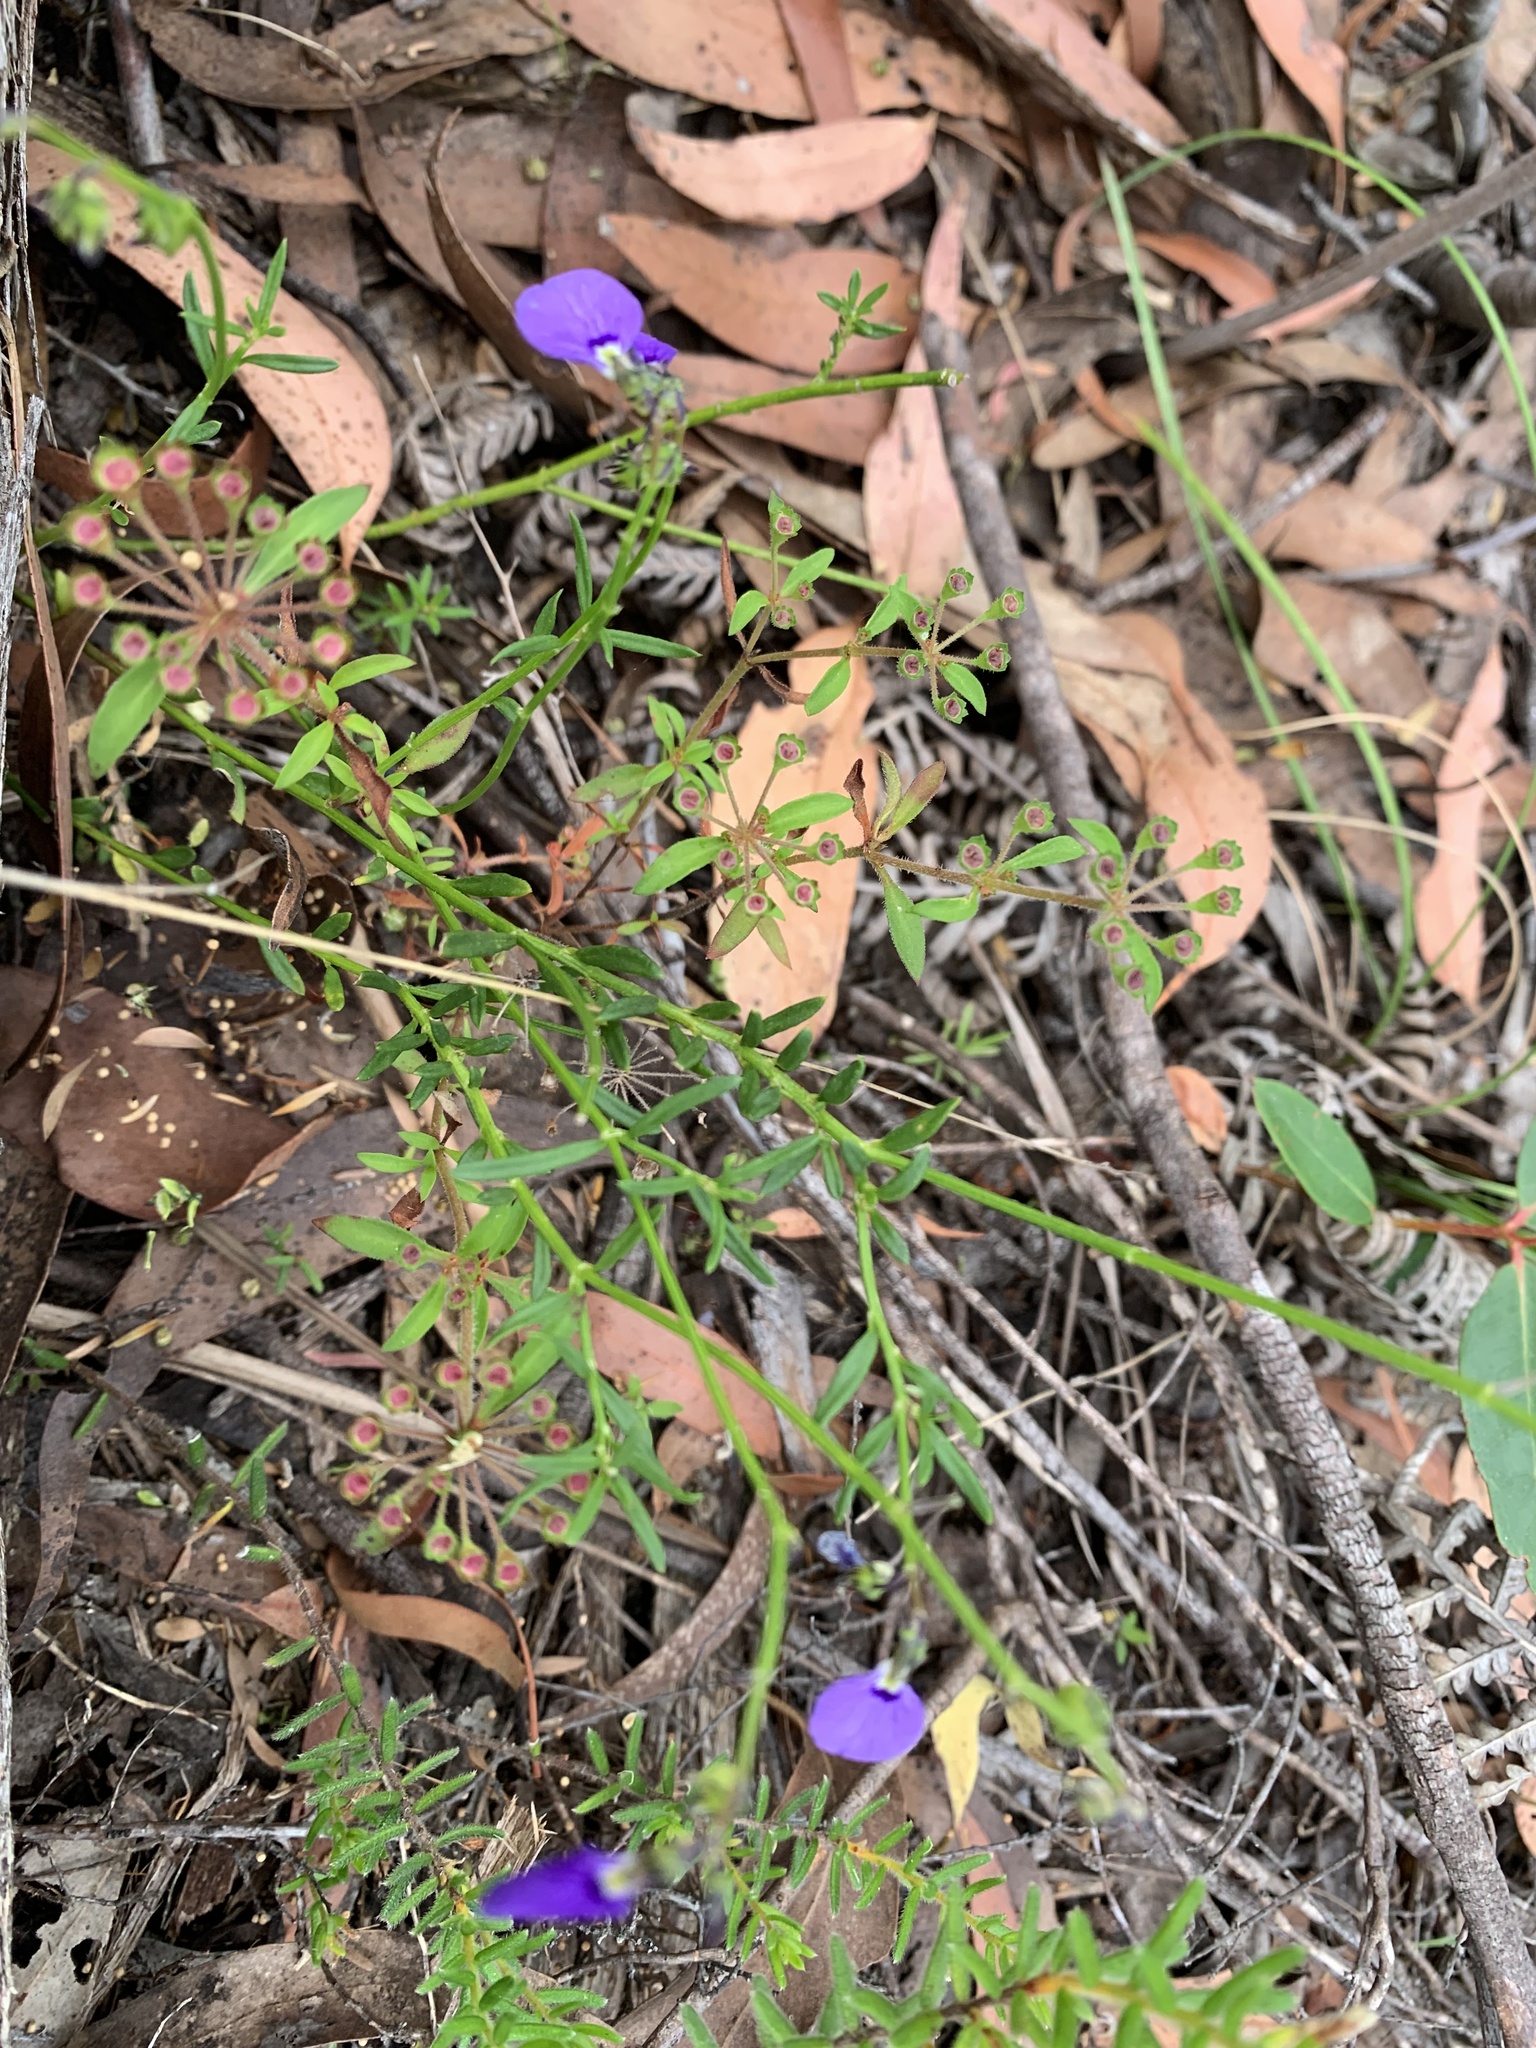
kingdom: Plantae
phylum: Tracheophyta
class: Magnoliopsida
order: Malpighiales
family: Violaceae
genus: Pigea
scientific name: Pigea monopetala
